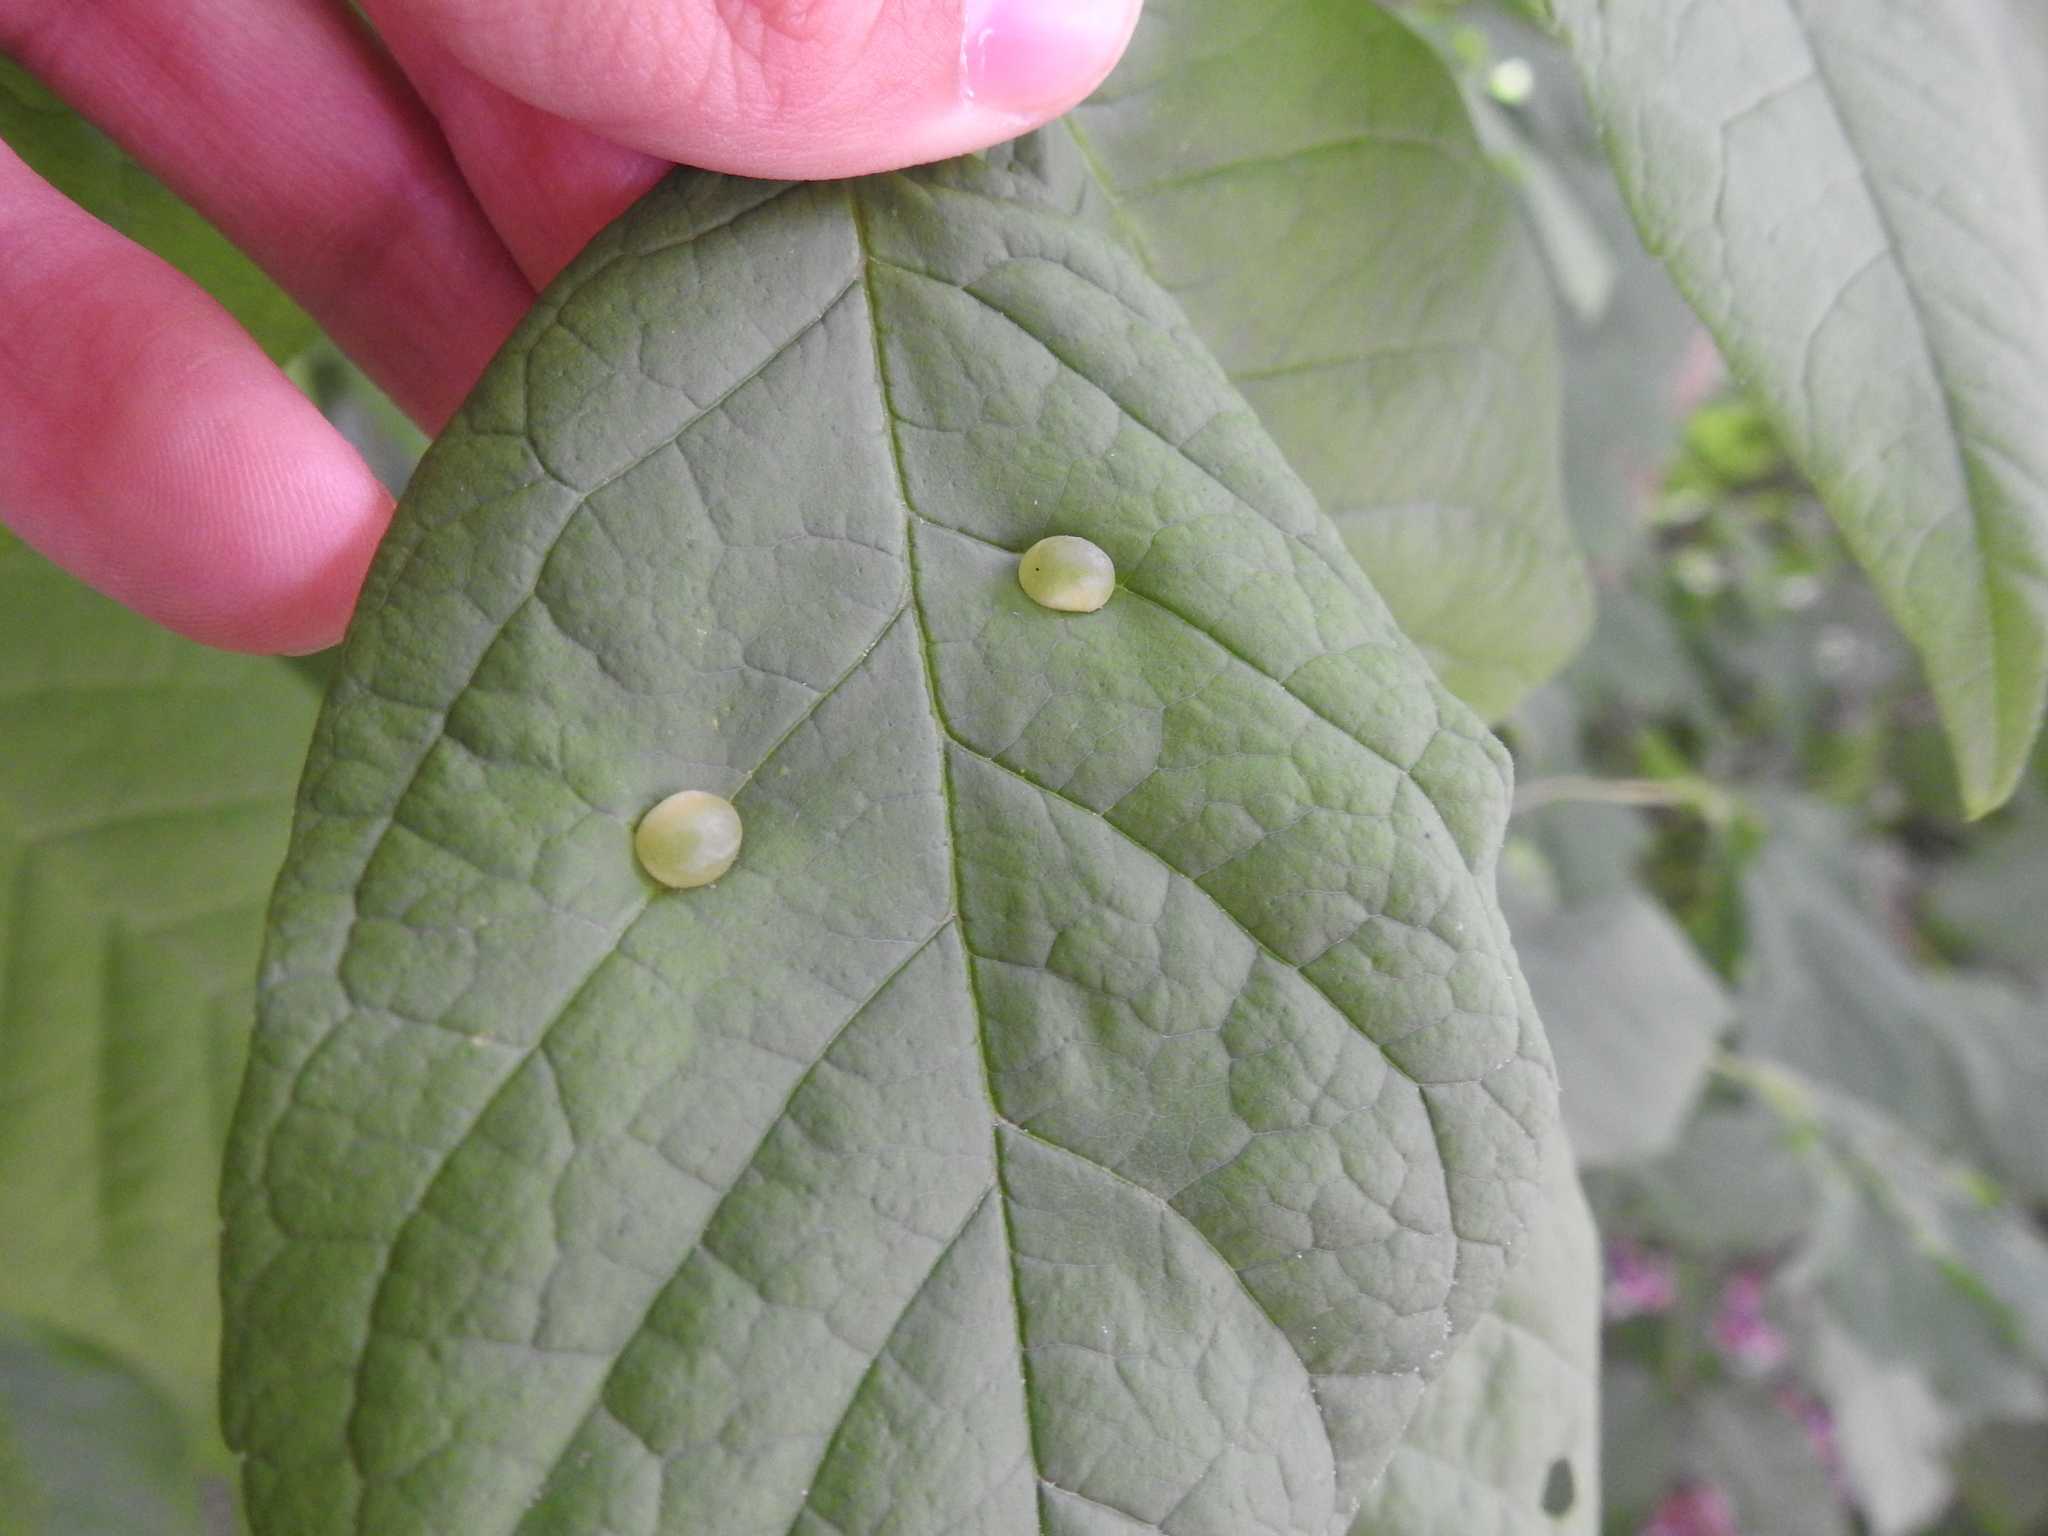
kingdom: Animalia
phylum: Arthropoda
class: Insecta
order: Diptera
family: Cecidomyiidae
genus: Dasineura
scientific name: Dasineura pellex
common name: Ash bullet gall midge
